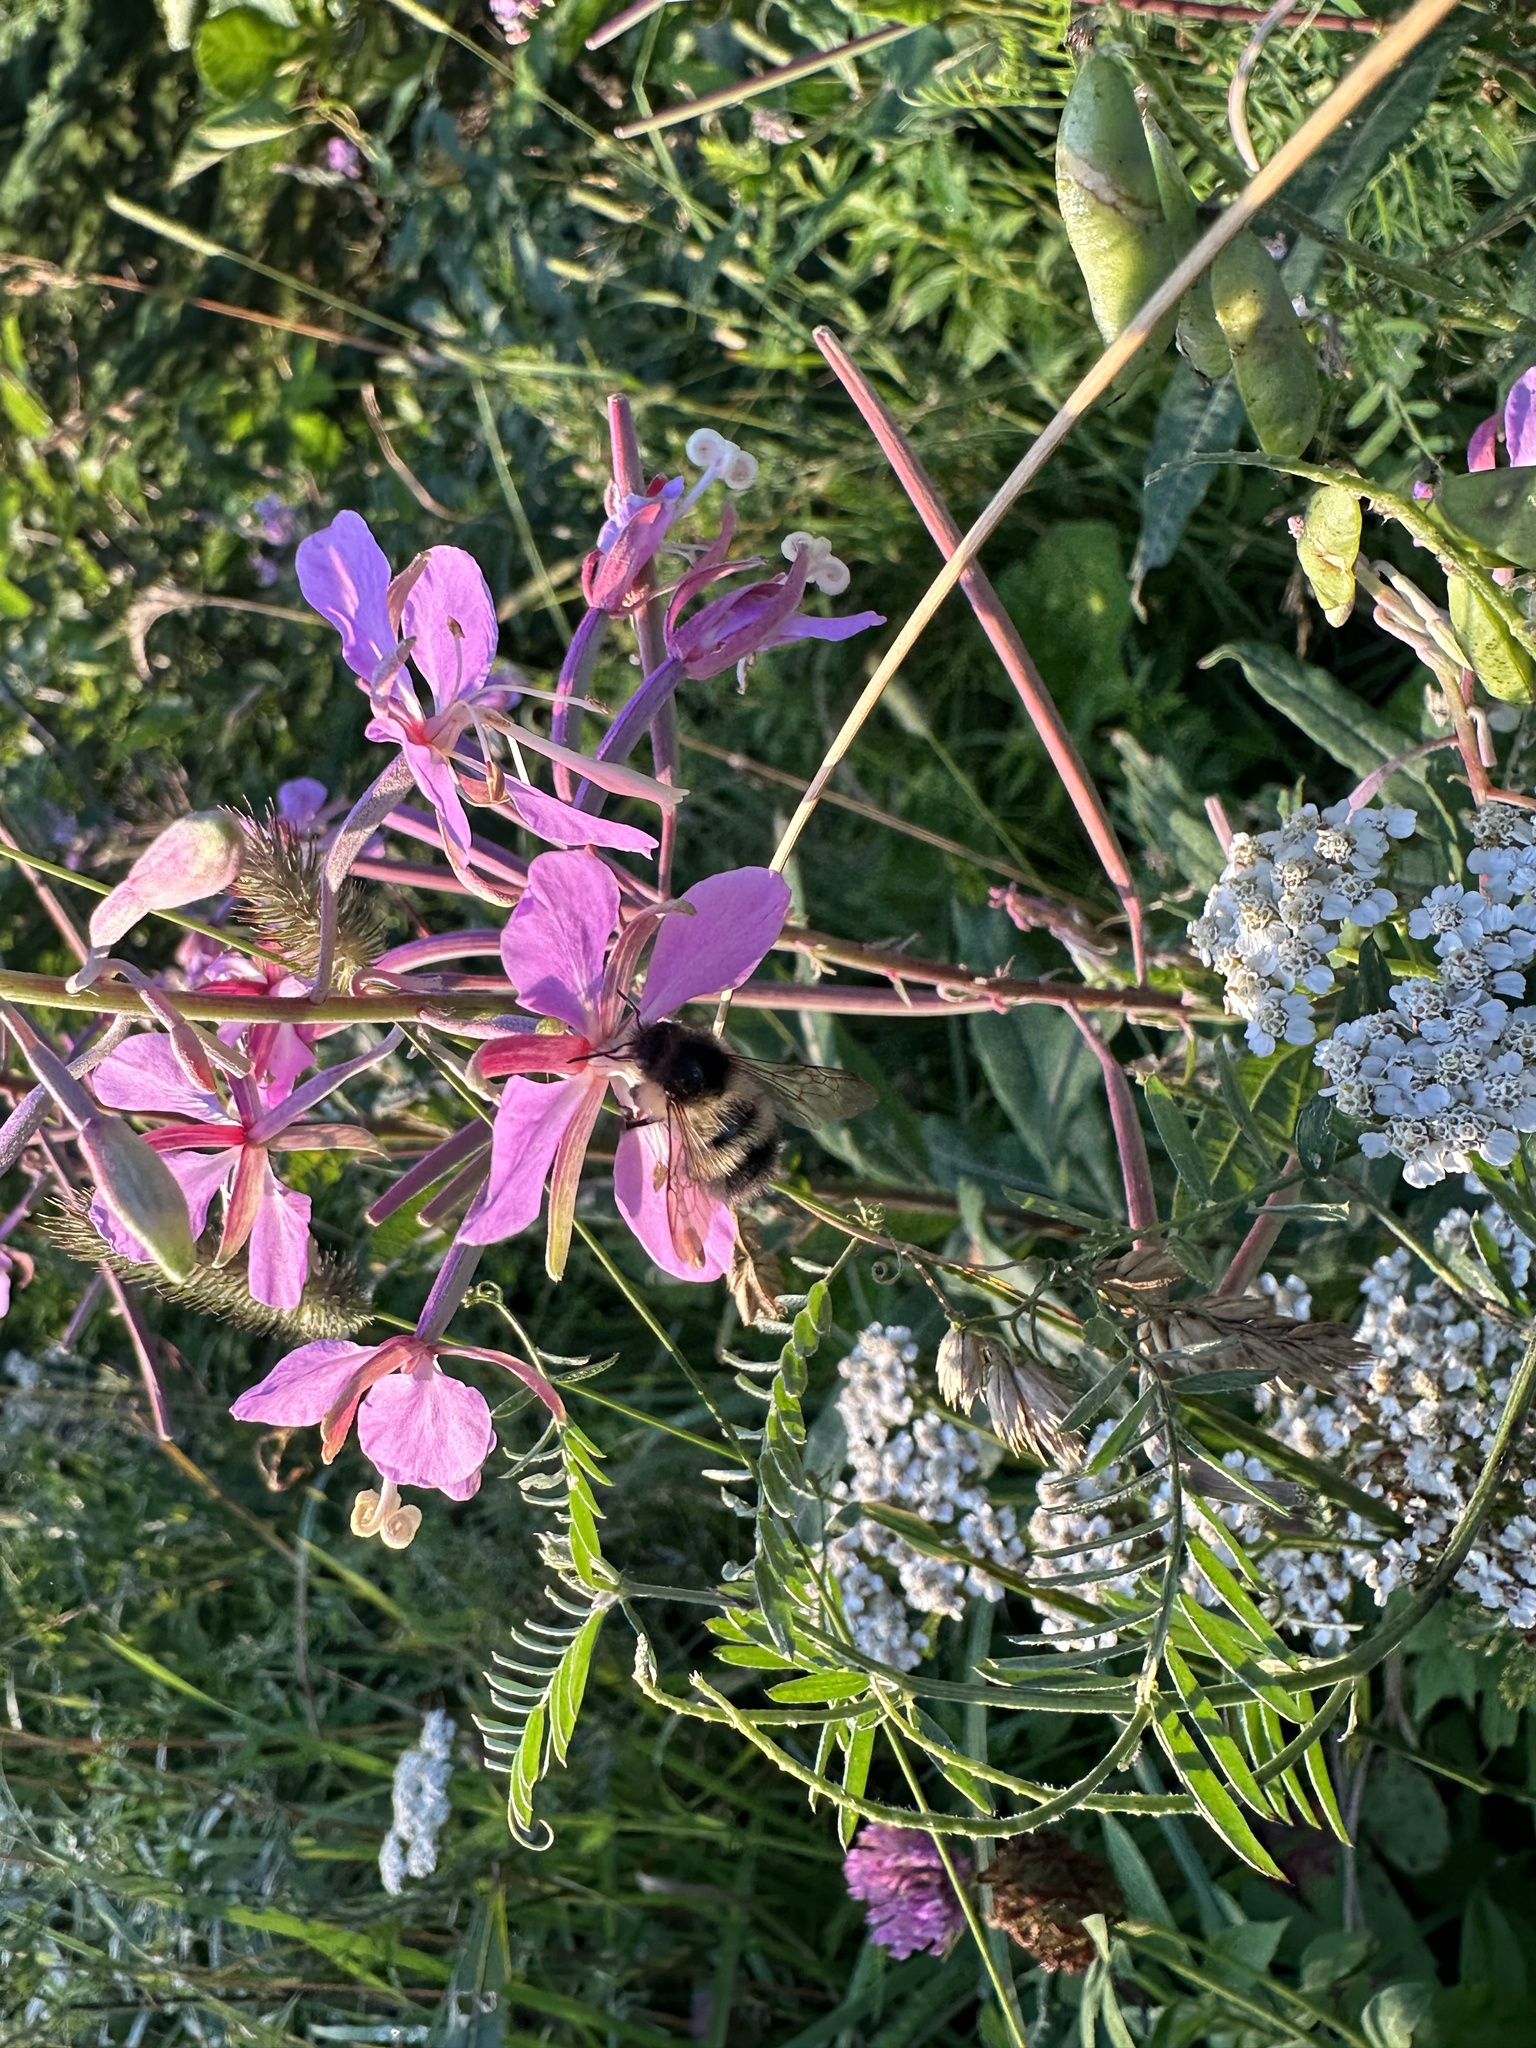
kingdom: Animalia
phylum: Arthropoda
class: Insecta
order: Hymenoptera
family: Apidae
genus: Bombus
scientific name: Bombus vagans
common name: Half-black bumble bee
